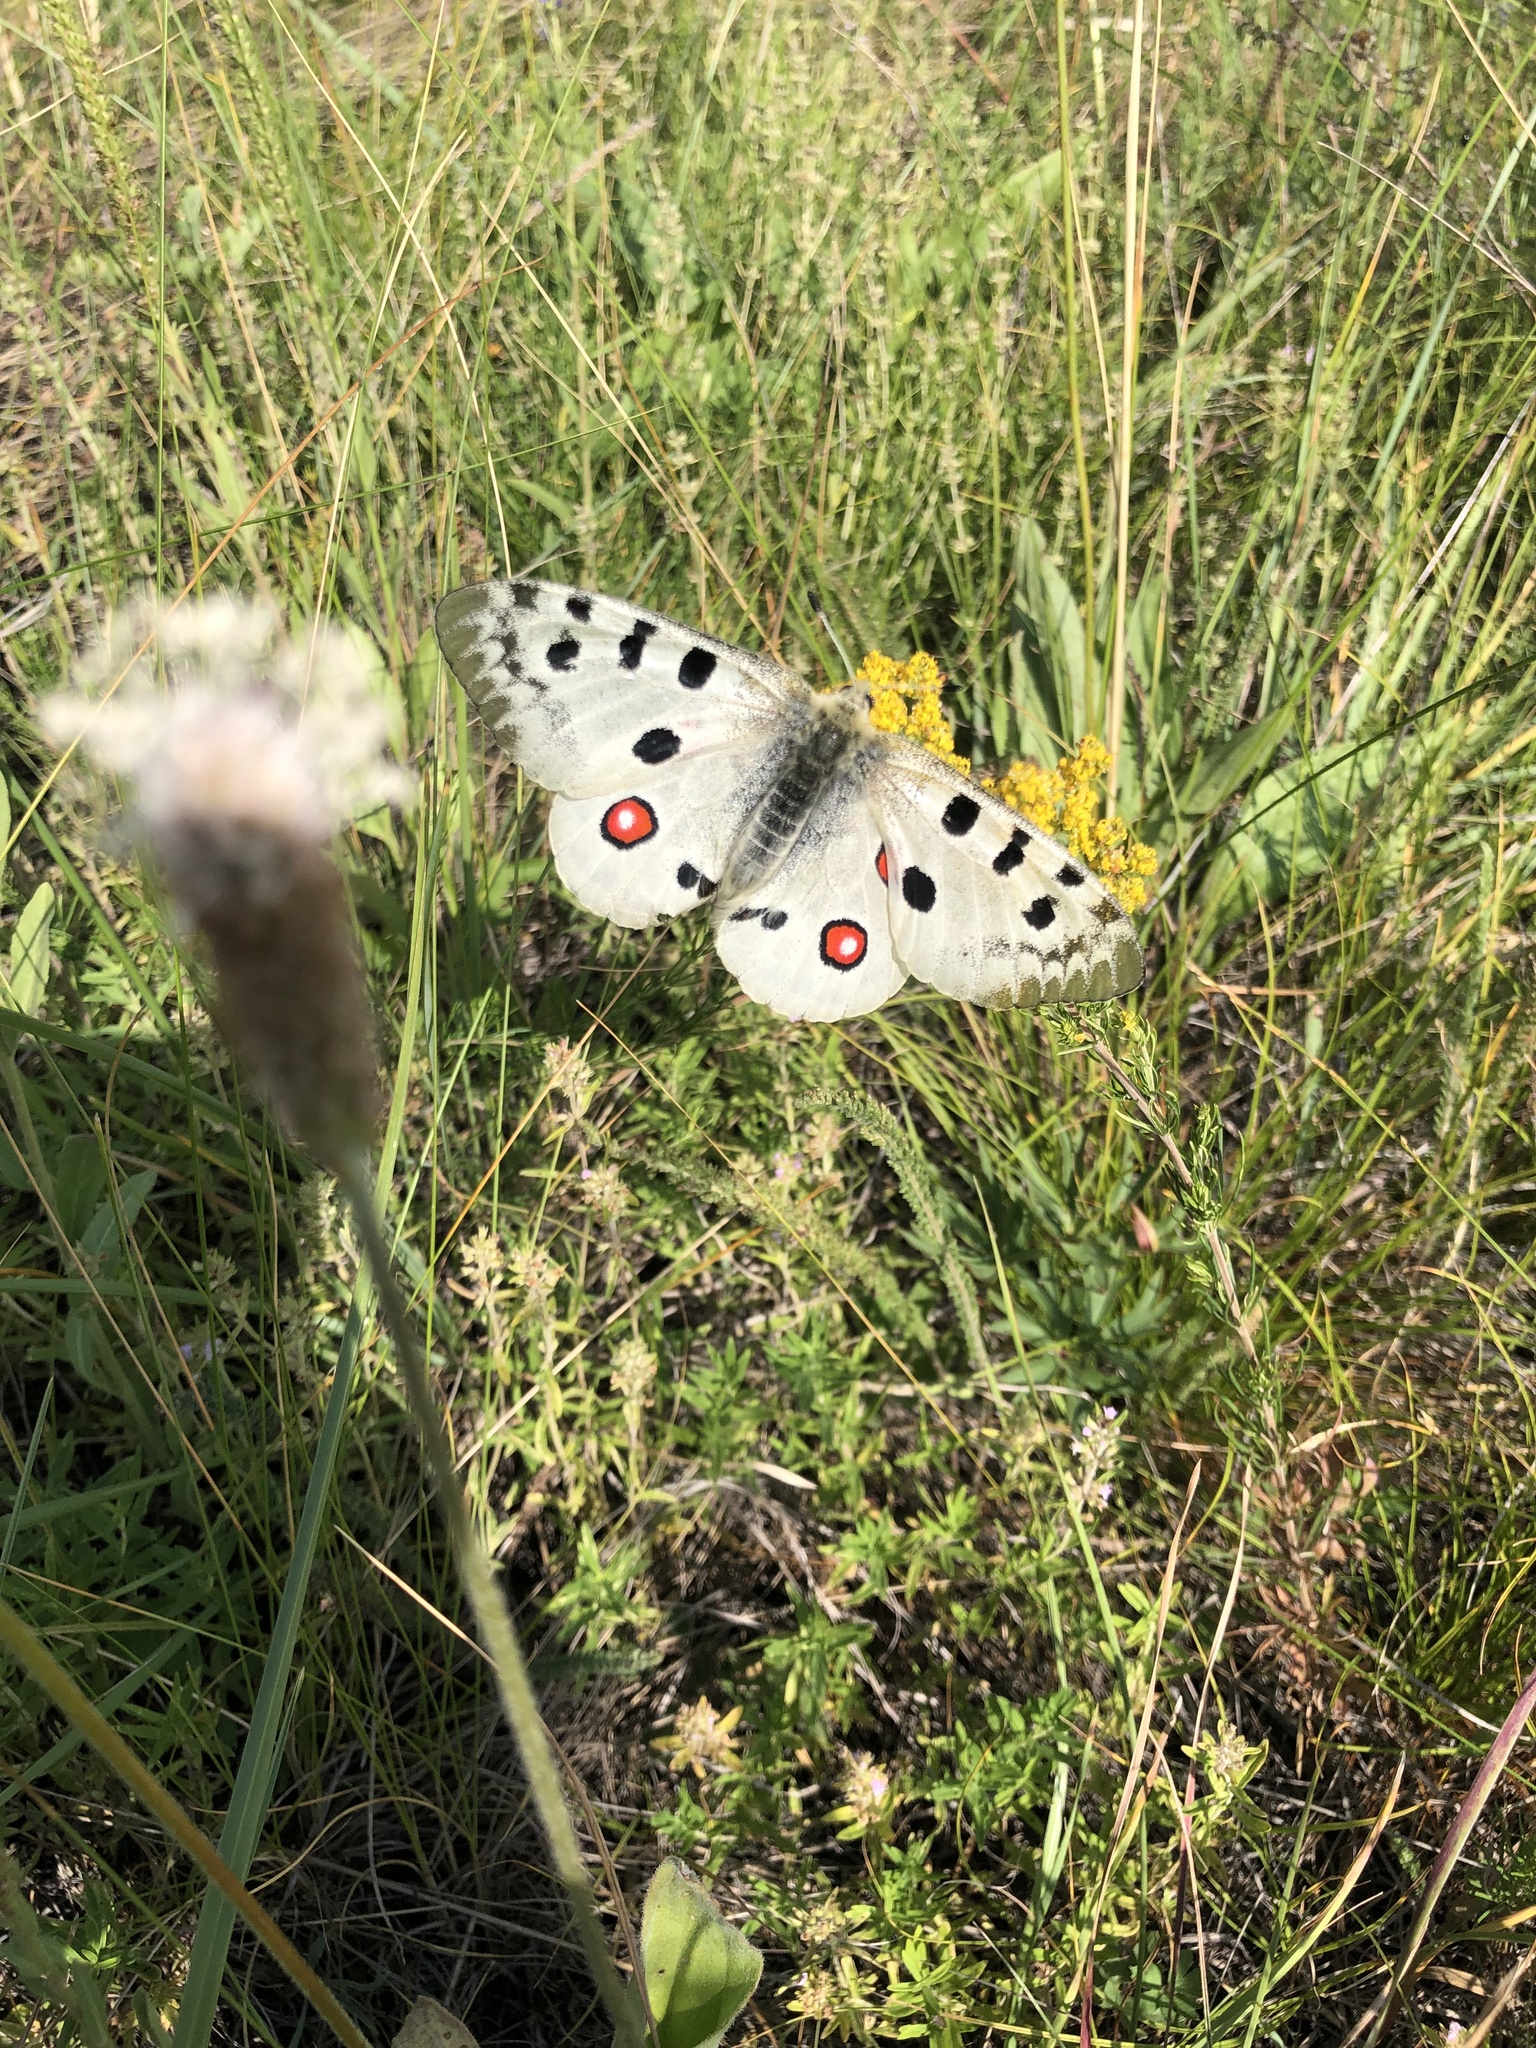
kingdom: Animalia
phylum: Arthropoda
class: Insecta
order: Lepidoptera
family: Papilionidae
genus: Parnassius
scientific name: Parnassius apollo
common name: Apollo
